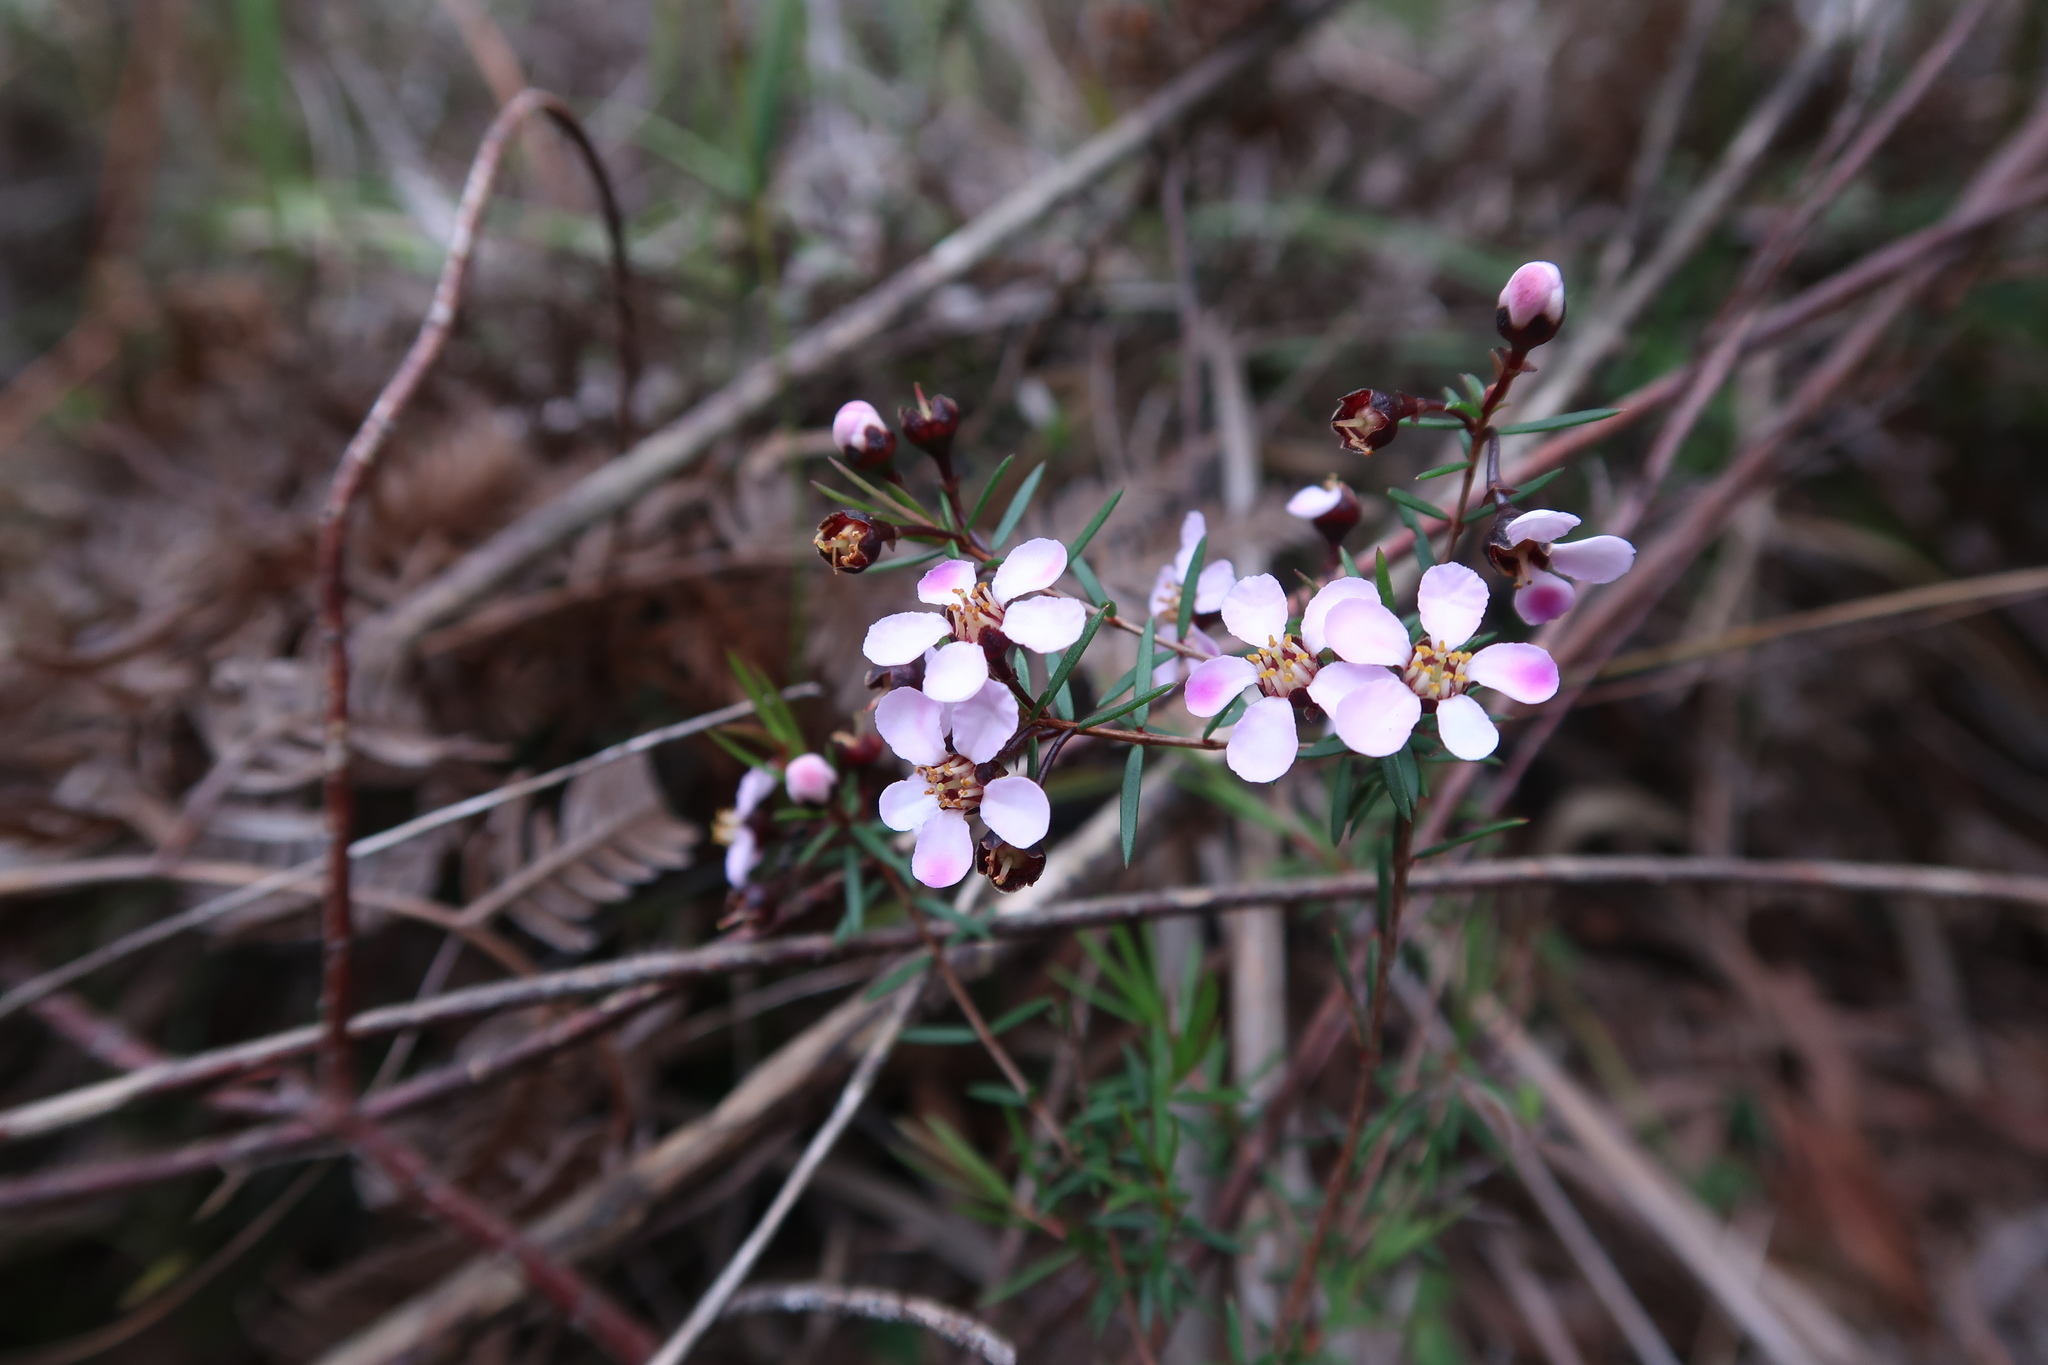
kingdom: Plantae
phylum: Tracheophyta
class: Magnoliopsida
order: Myrtales
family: Myrtaceae
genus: Euryomyrtus
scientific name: Euryomyrtus ramosissima
